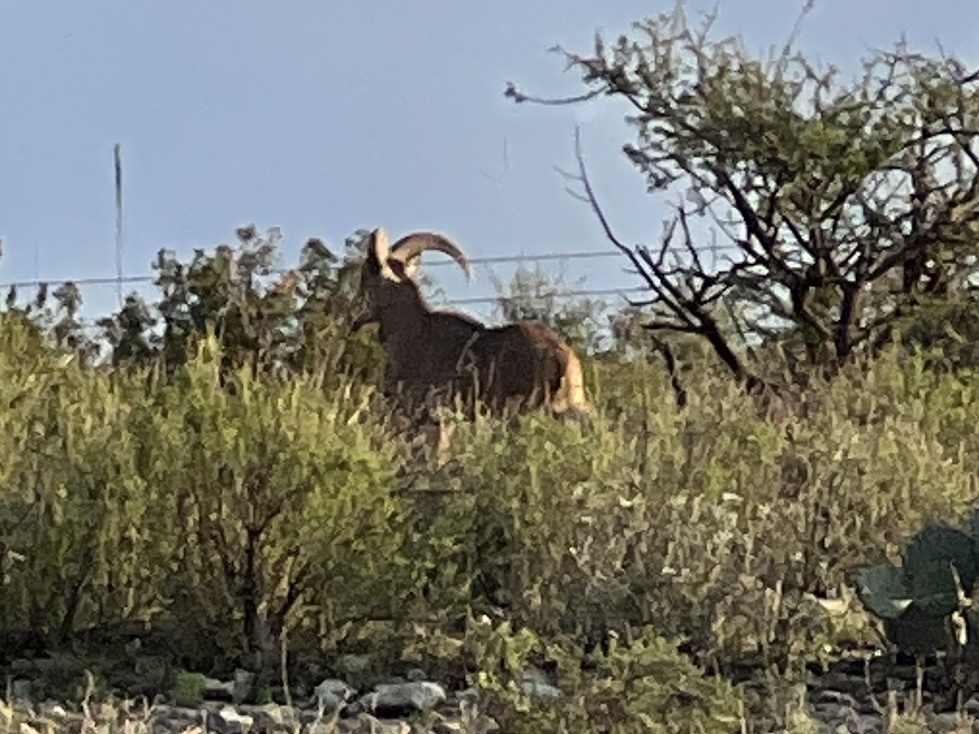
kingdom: Animalia
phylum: Chordata
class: Mammalia
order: Artiodactyla
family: Bovidae
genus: Ammotragus
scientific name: Ammotragus lervia
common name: Barbary sheep
